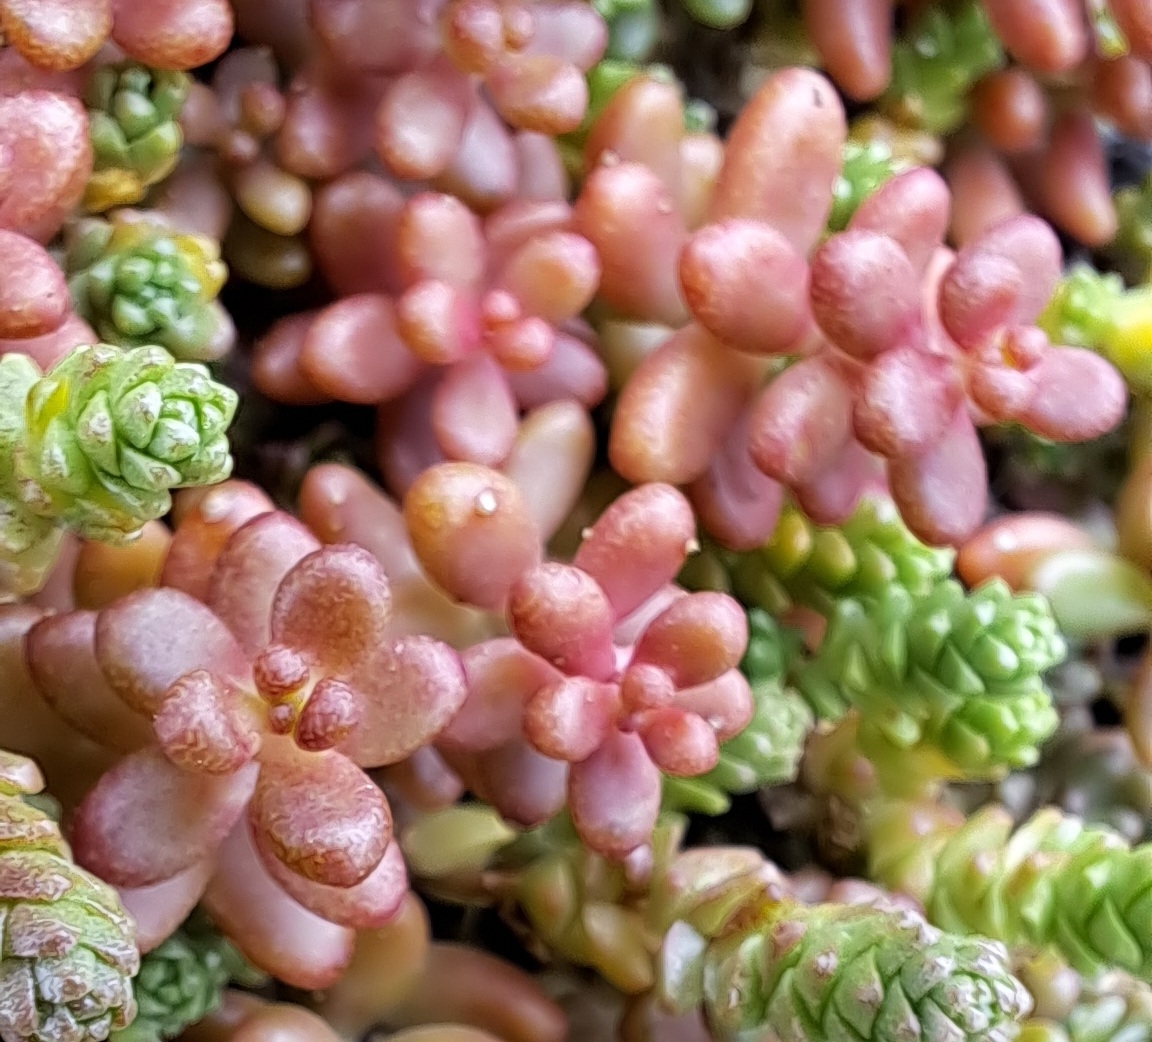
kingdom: Plantae
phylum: Tracheophyta
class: Magnoliopsida
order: Saxifragales
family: Crassulaceae
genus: Sedum
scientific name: Sedum album
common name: White stonecrop
